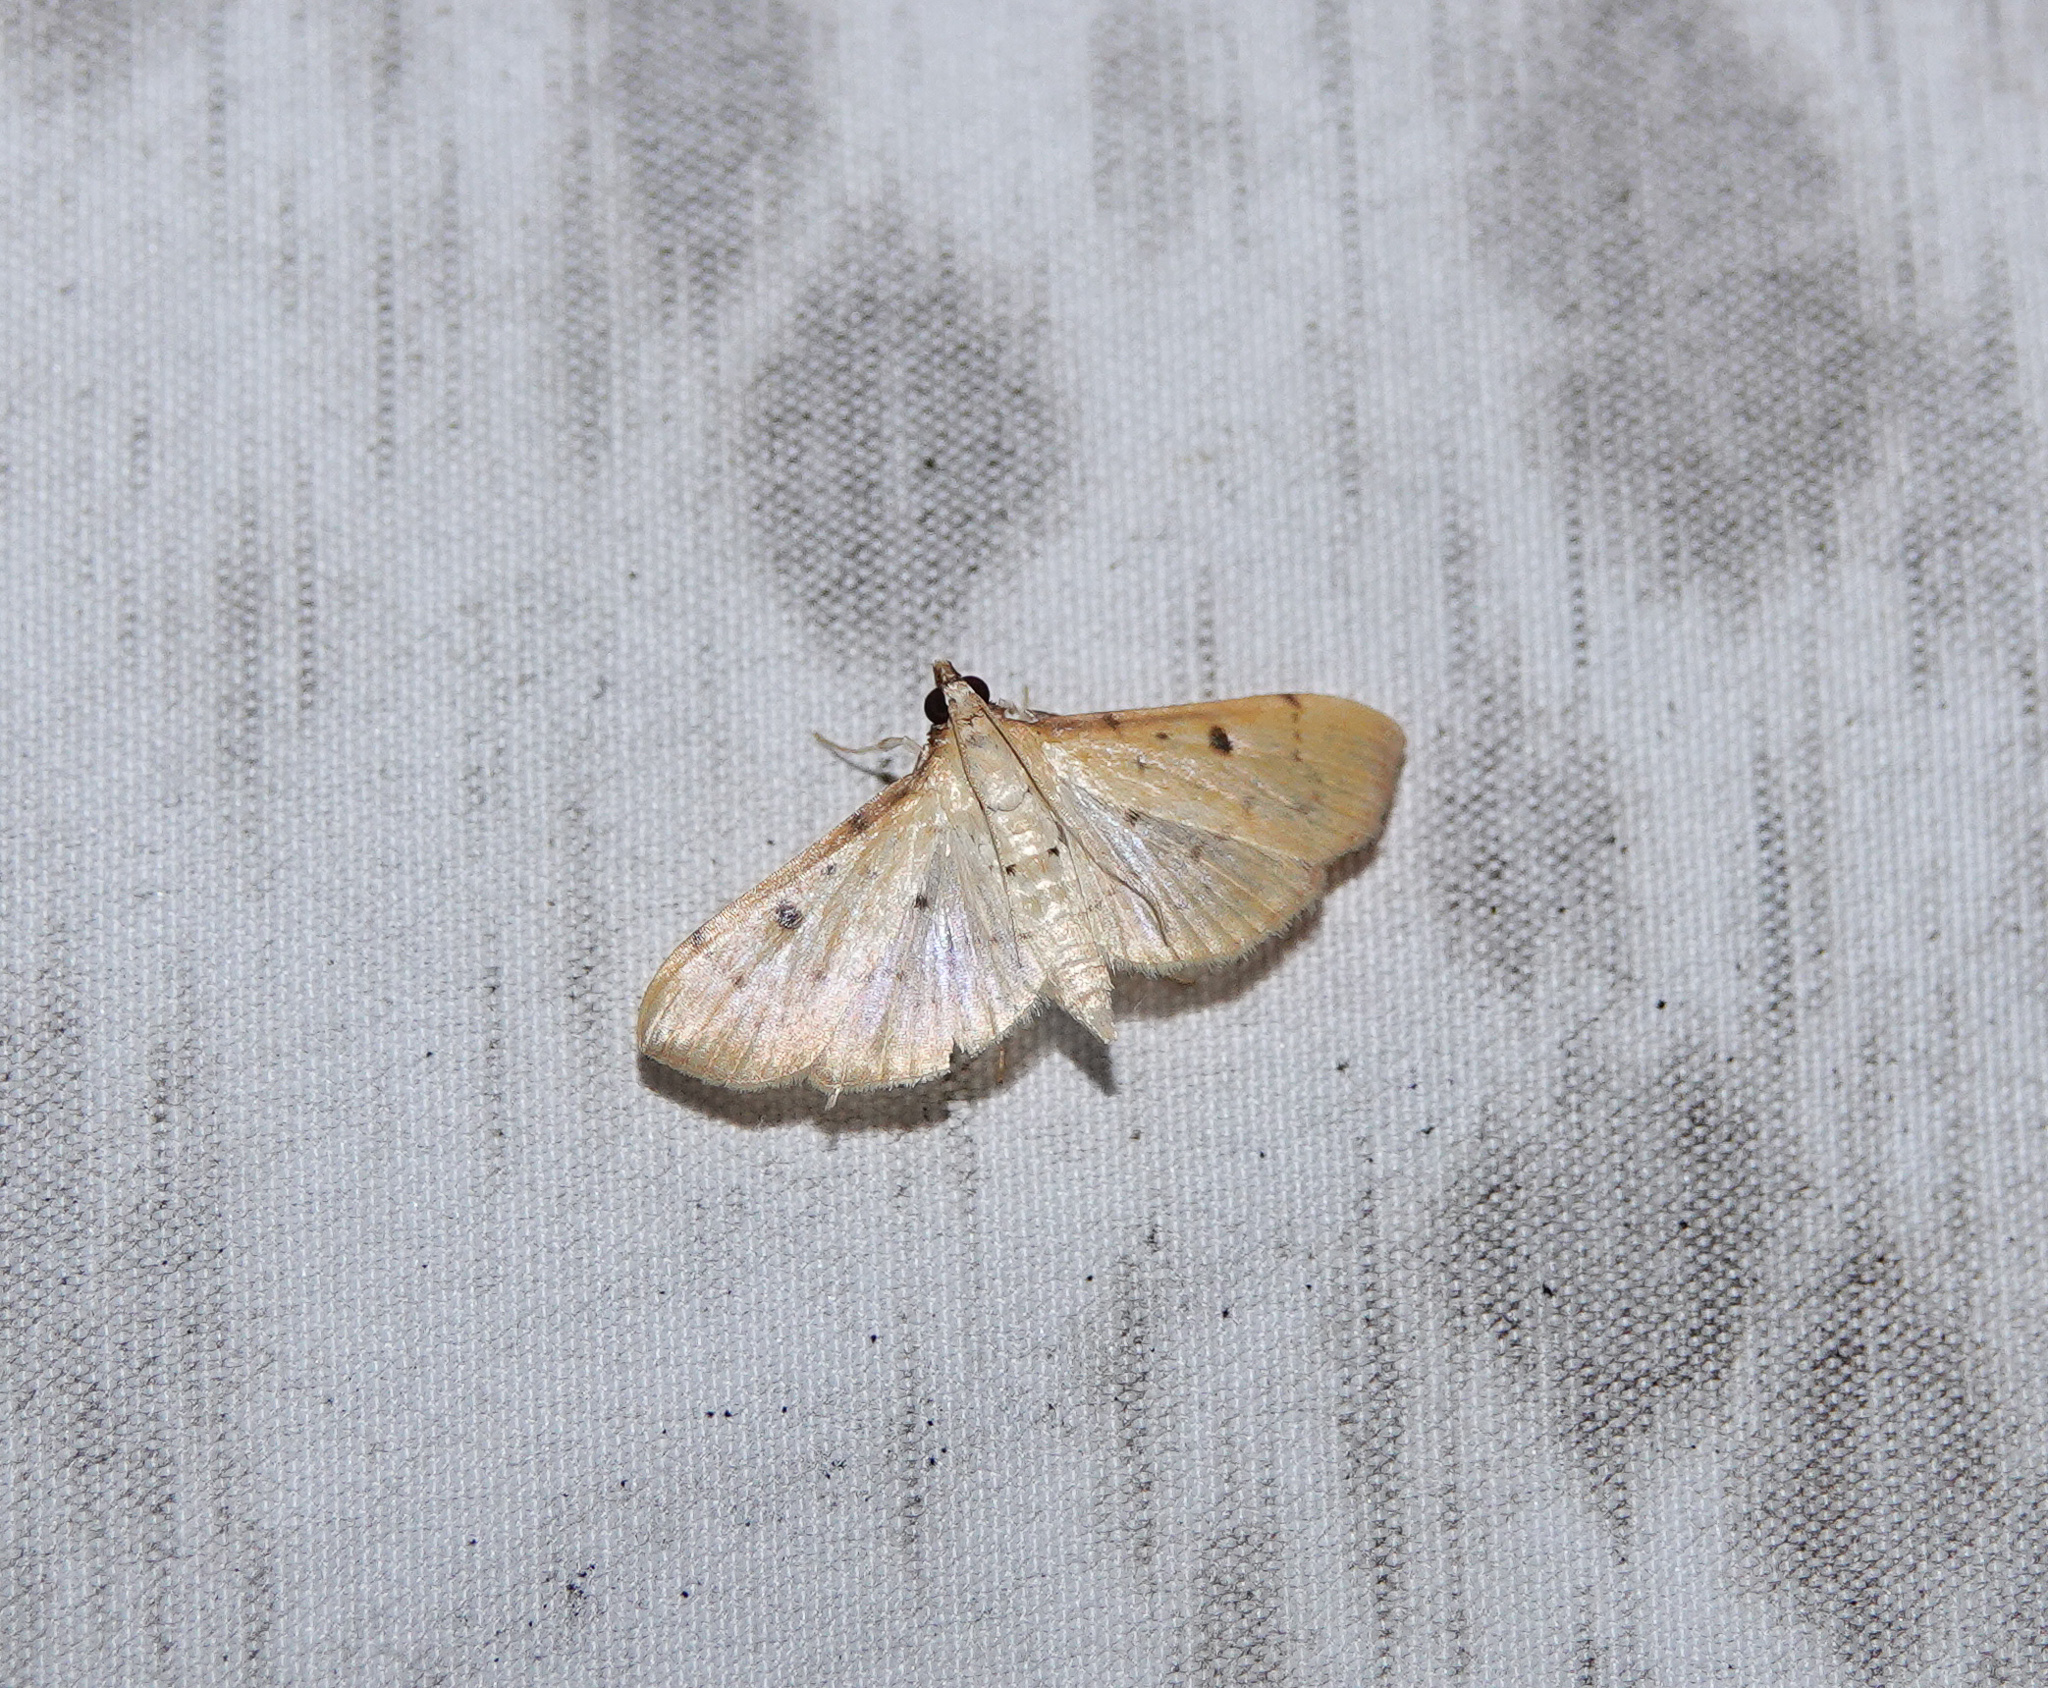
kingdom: Animalia
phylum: Arthropoda
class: Insecta
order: Lepidoptera
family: Crambidae
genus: Herpetogramma
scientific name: Herpetogramma basalis
